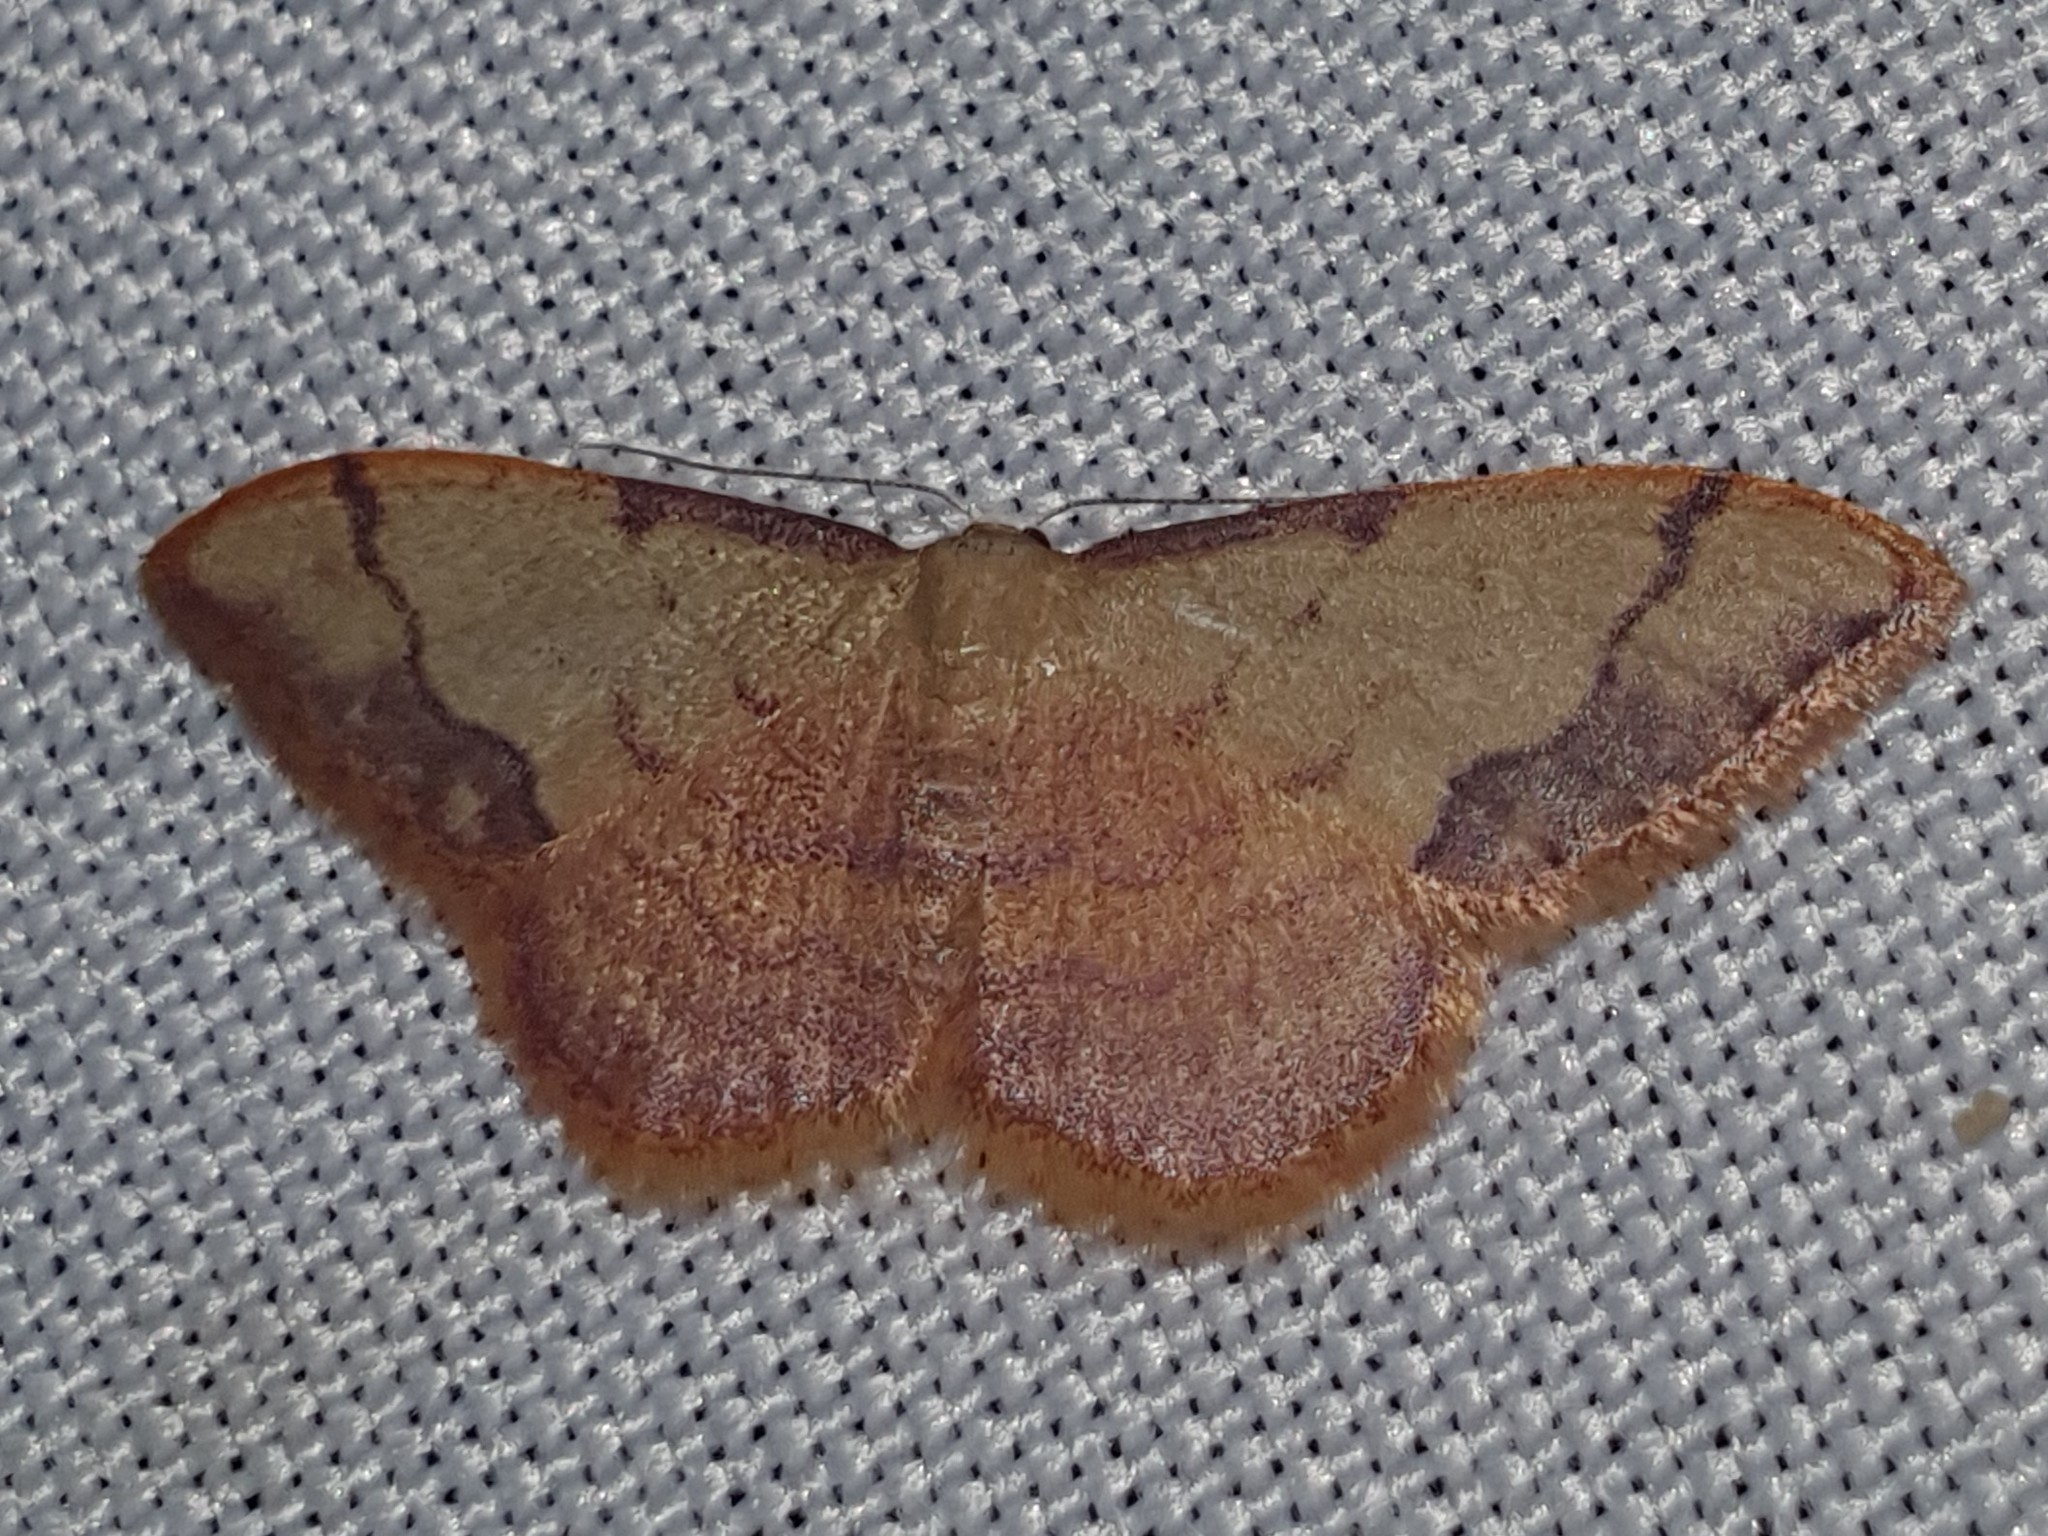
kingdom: Animalia
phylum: Arthropoda
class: Insecta
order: Lepidoptera
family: Geometridae
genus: Idaea
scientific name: Idaea ostrinaria
